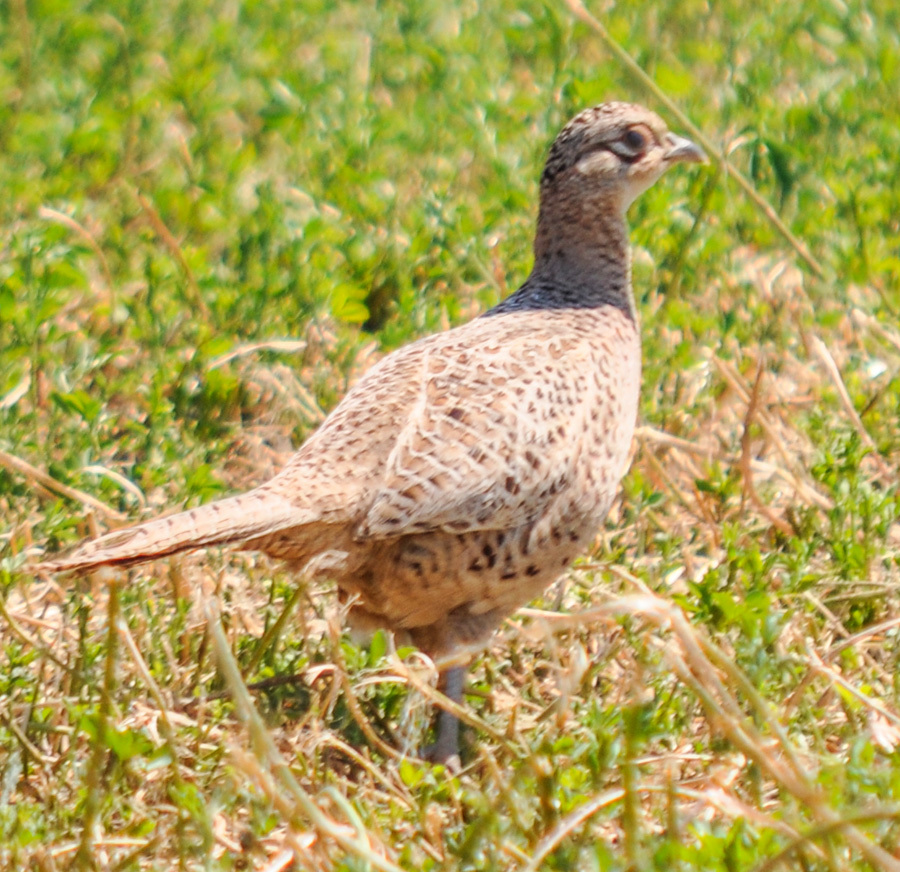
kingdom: Animalia
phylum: Chordata
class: Aves
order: Galliformes
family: Phasianidae
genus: Phasianus
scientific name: Phasianus colchicus
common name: Common pheasant
